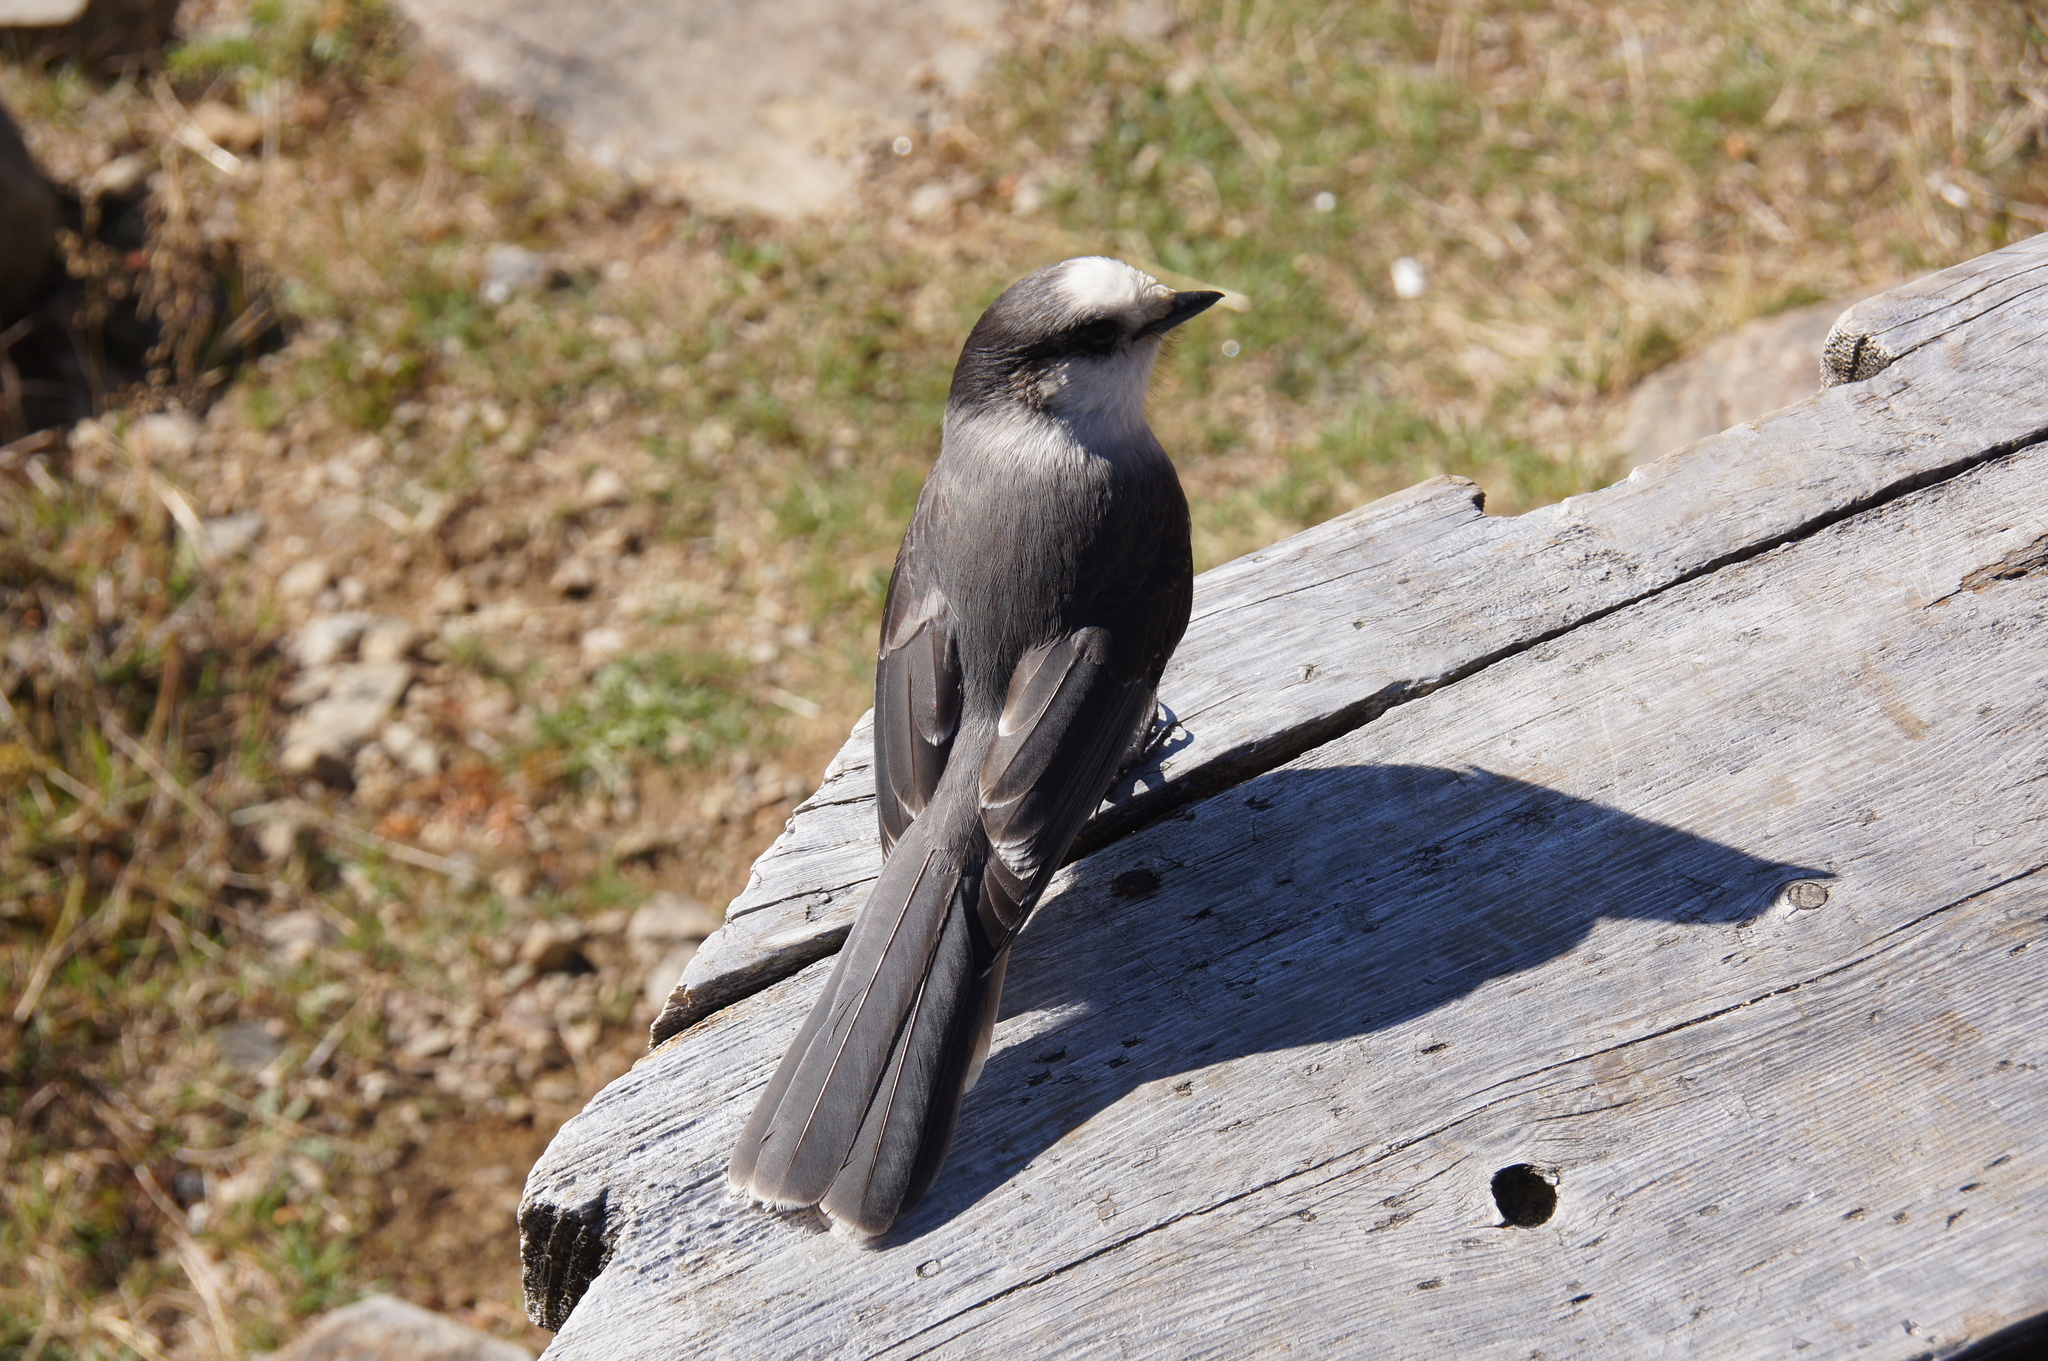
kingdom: Animalia
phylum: Chordata
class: Aves
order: Passeriformes
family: Corvidae
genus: Perisoreus
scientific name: Perisoreus canadensis
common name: Gray jay
